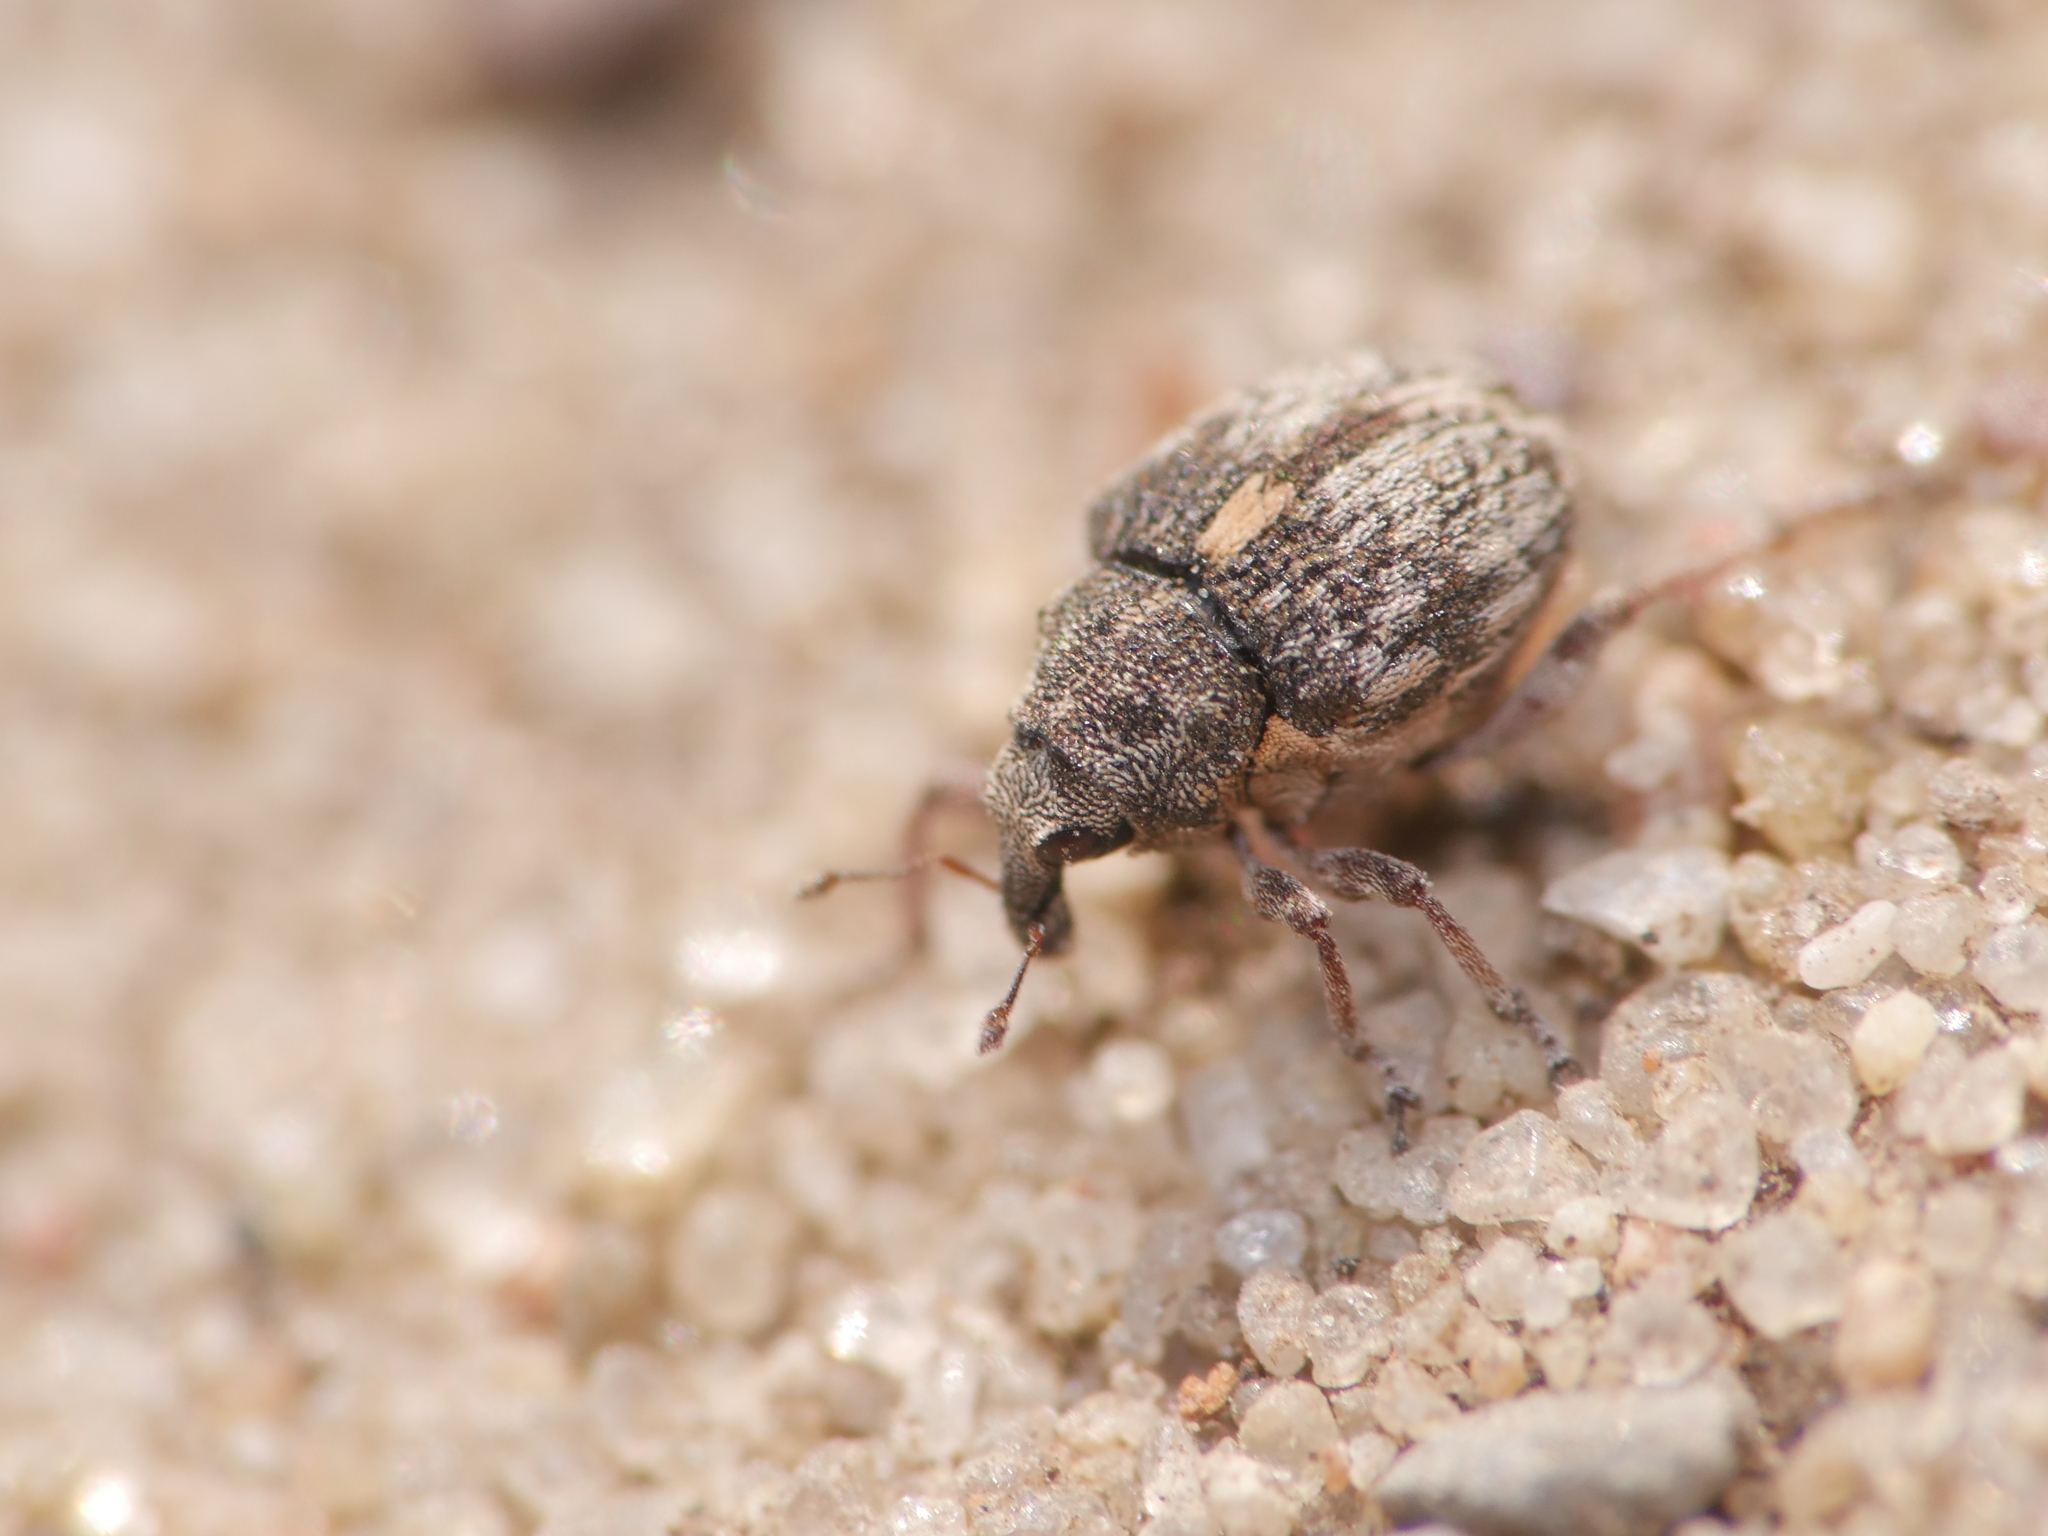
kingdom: Animalia
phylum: Arthropoda
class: Insecta
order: Coleoptera
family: Curculionidae
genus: Rhinoncus
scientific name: Rhinoncus pericarpius
